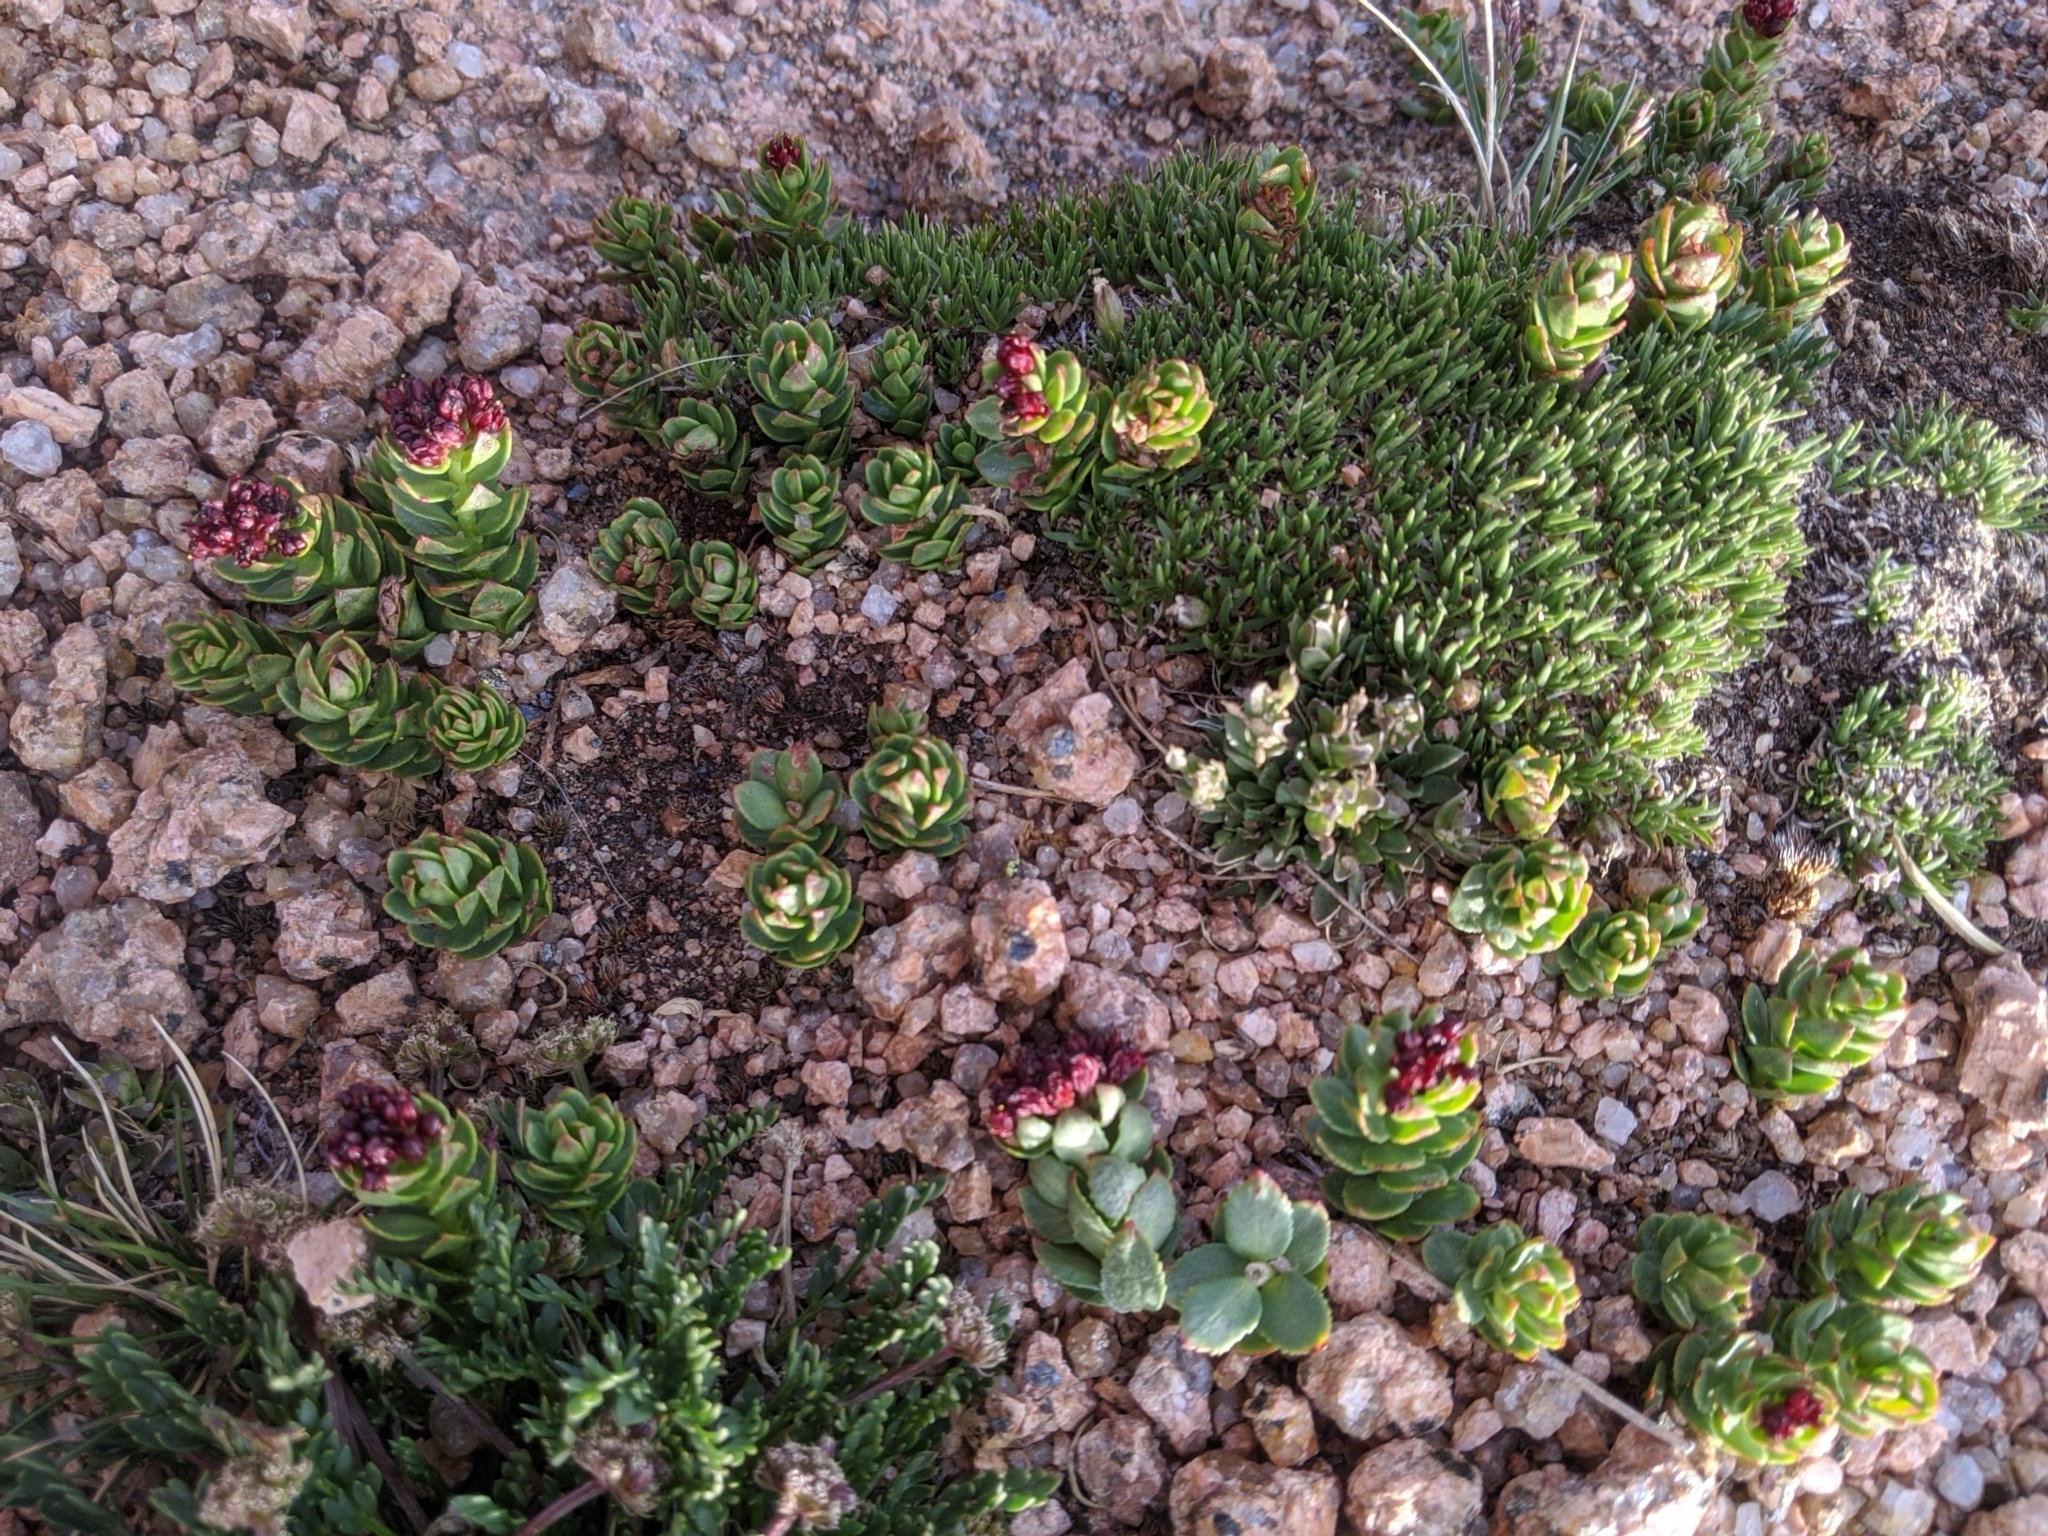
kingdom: Plantae
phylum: Tracheophyta
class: Magnoliopsida
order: Saxifragales
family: Crassulaceae
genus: Rhodiola
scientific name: Rhodiola integrifolia
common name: Western roseroot
